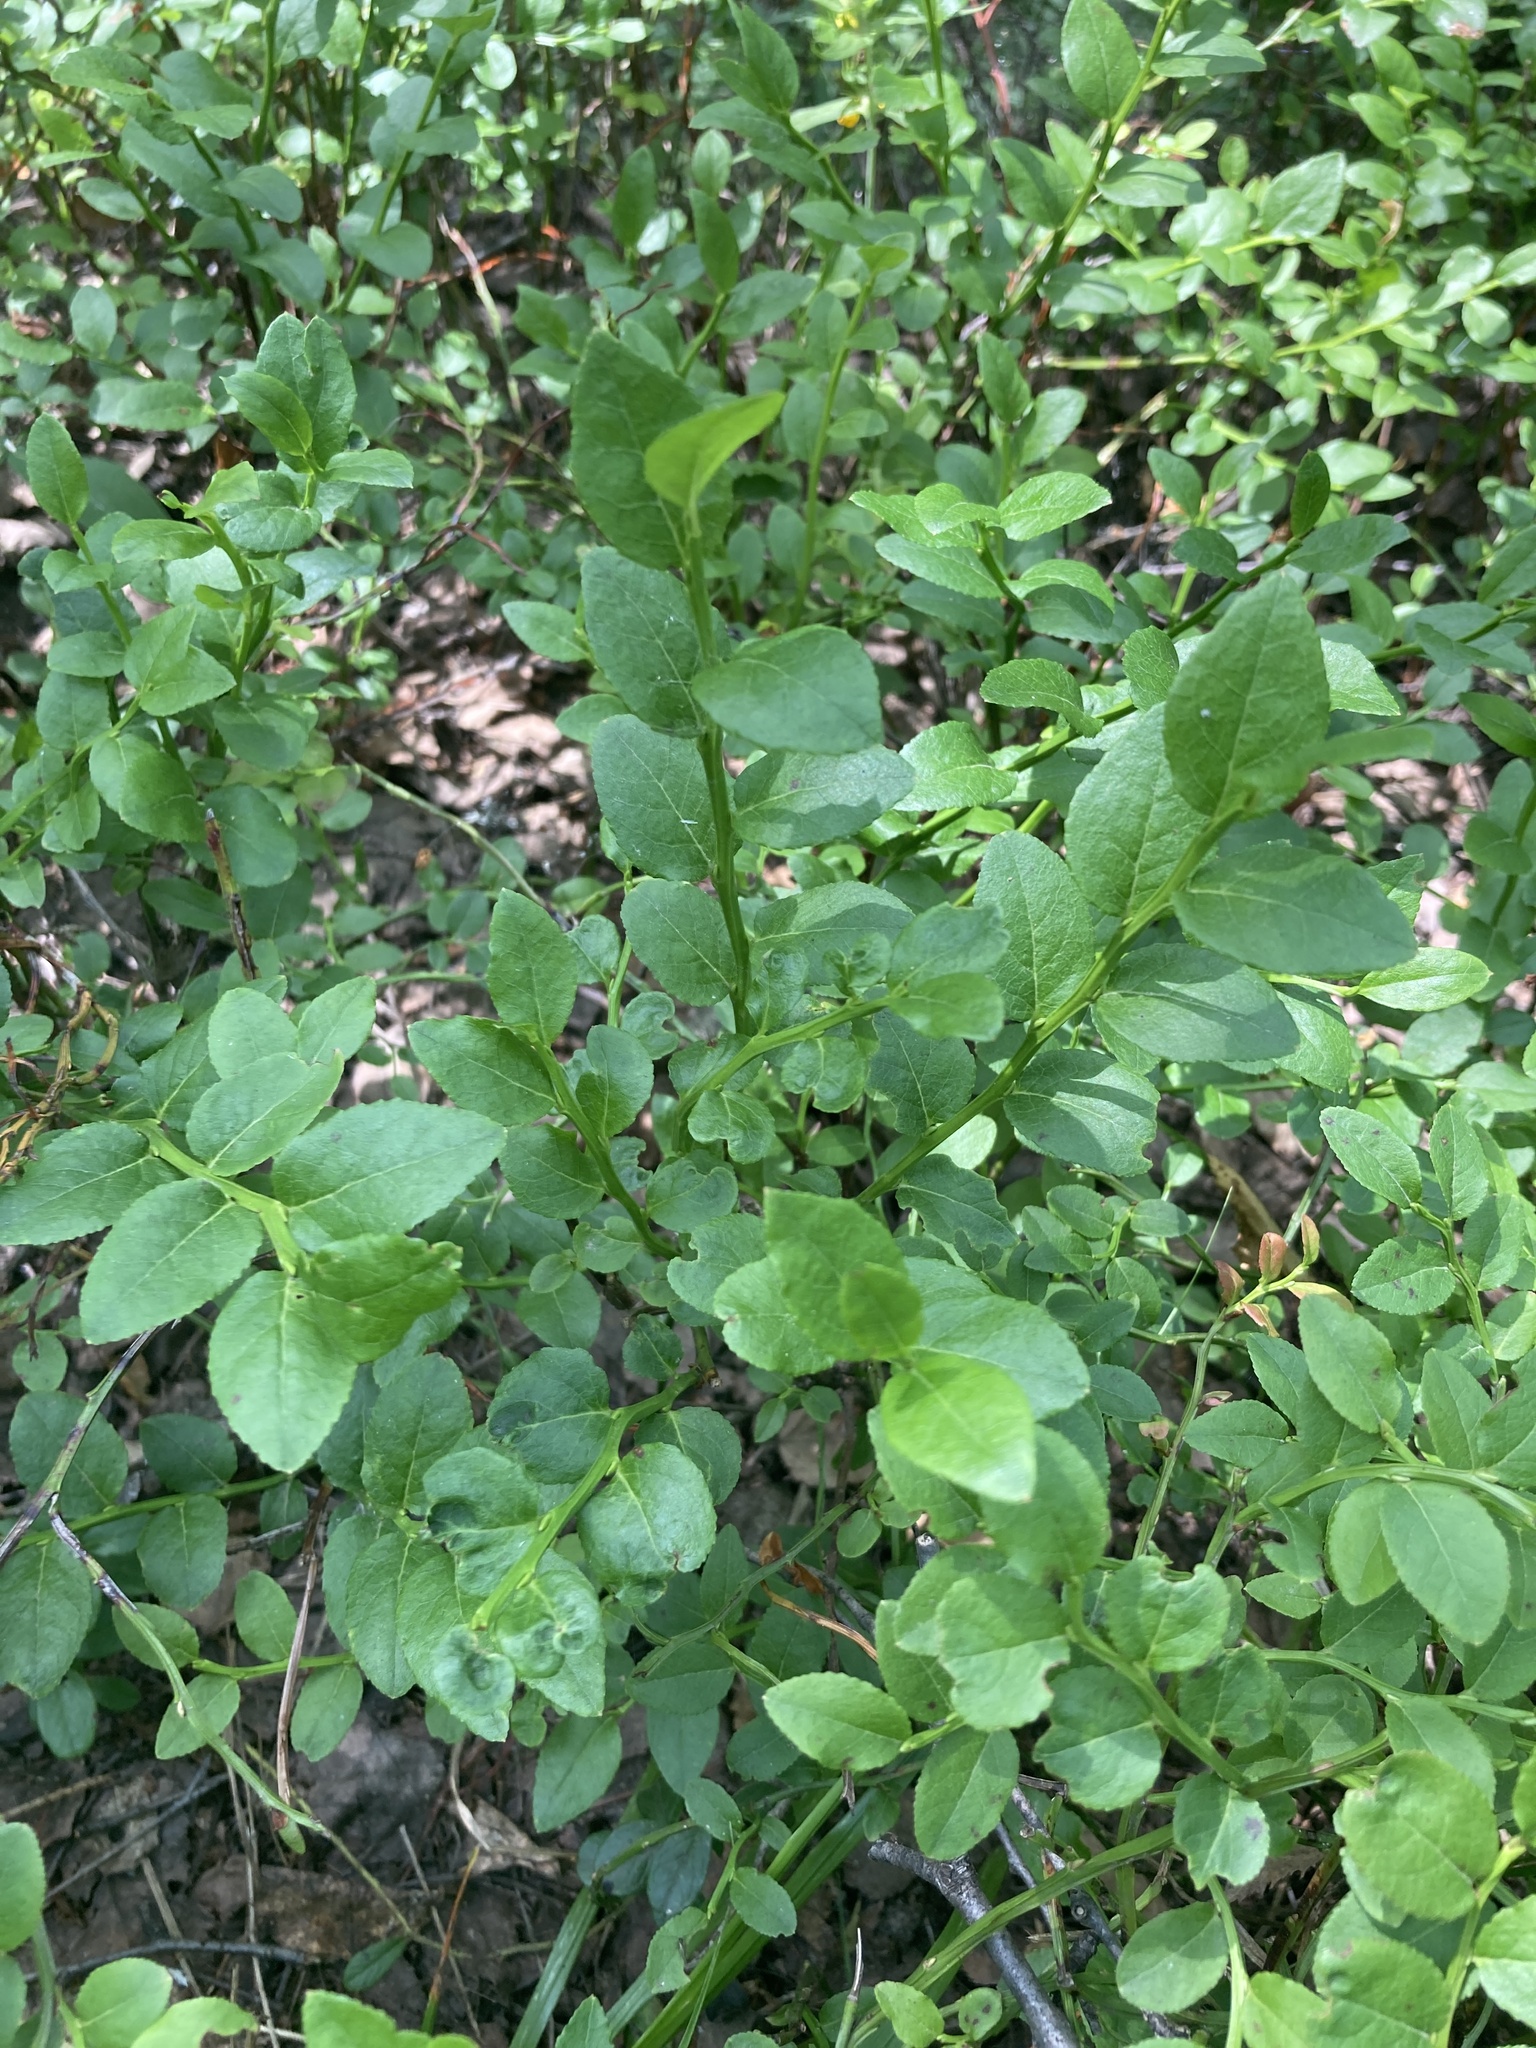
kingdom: Plantae
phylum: Tracheophyta
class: Magnoliopsida
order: Ericales
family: Ericaceae
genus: Vaccinium
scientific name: Vaccinium myrtillus
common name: Bilberry
